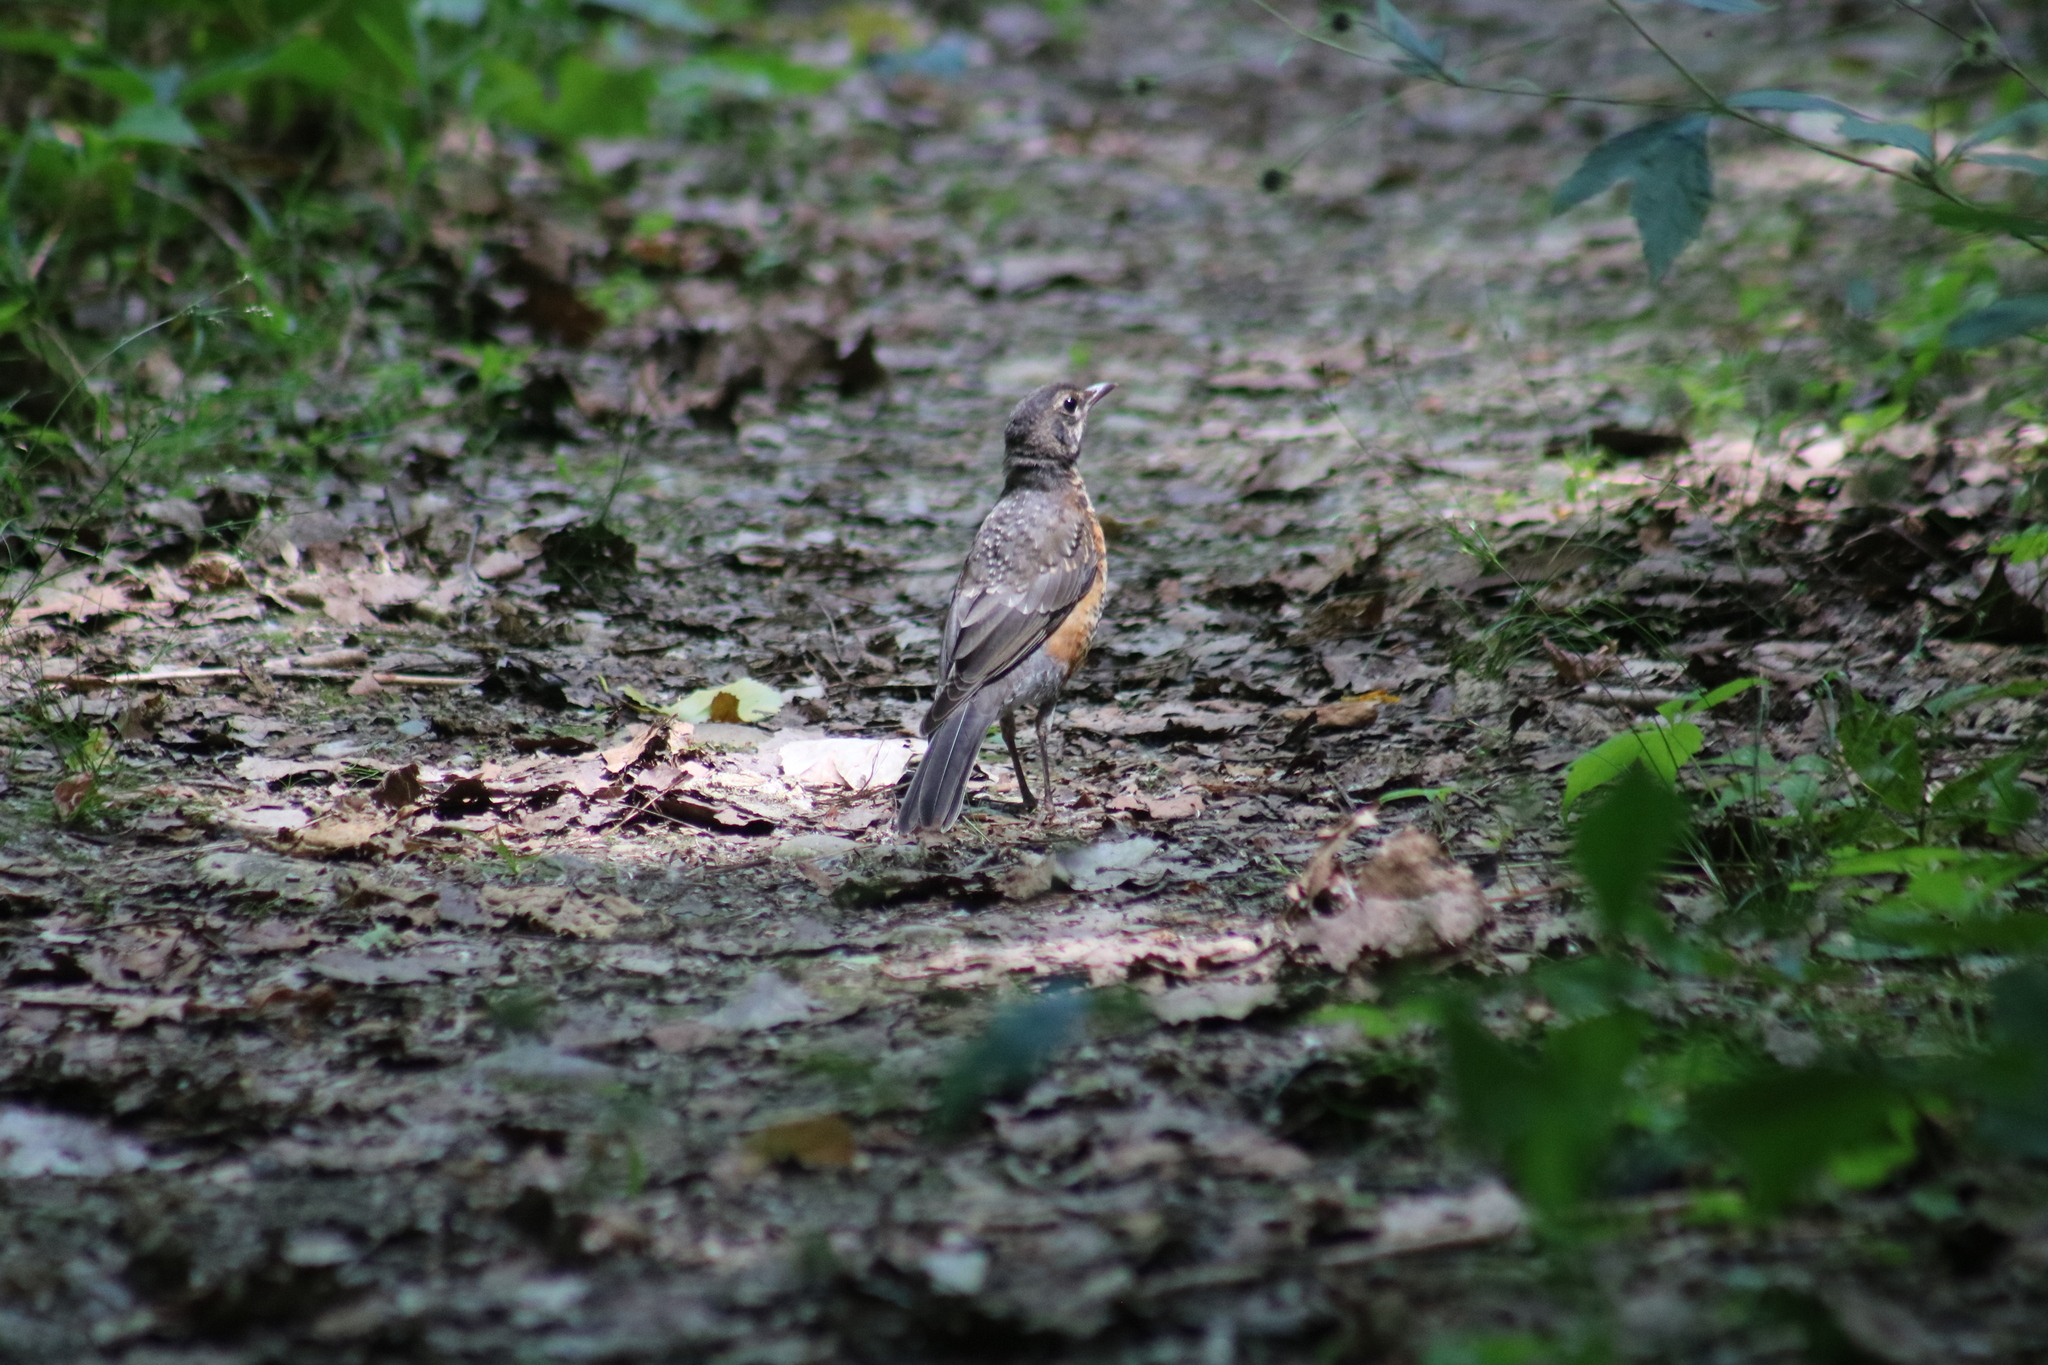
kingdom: Animalia
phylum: Chordata
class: Aves
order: Passeriformes
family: Turdidae
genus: Turdus
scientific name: Turdus migratorius
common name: American robin
